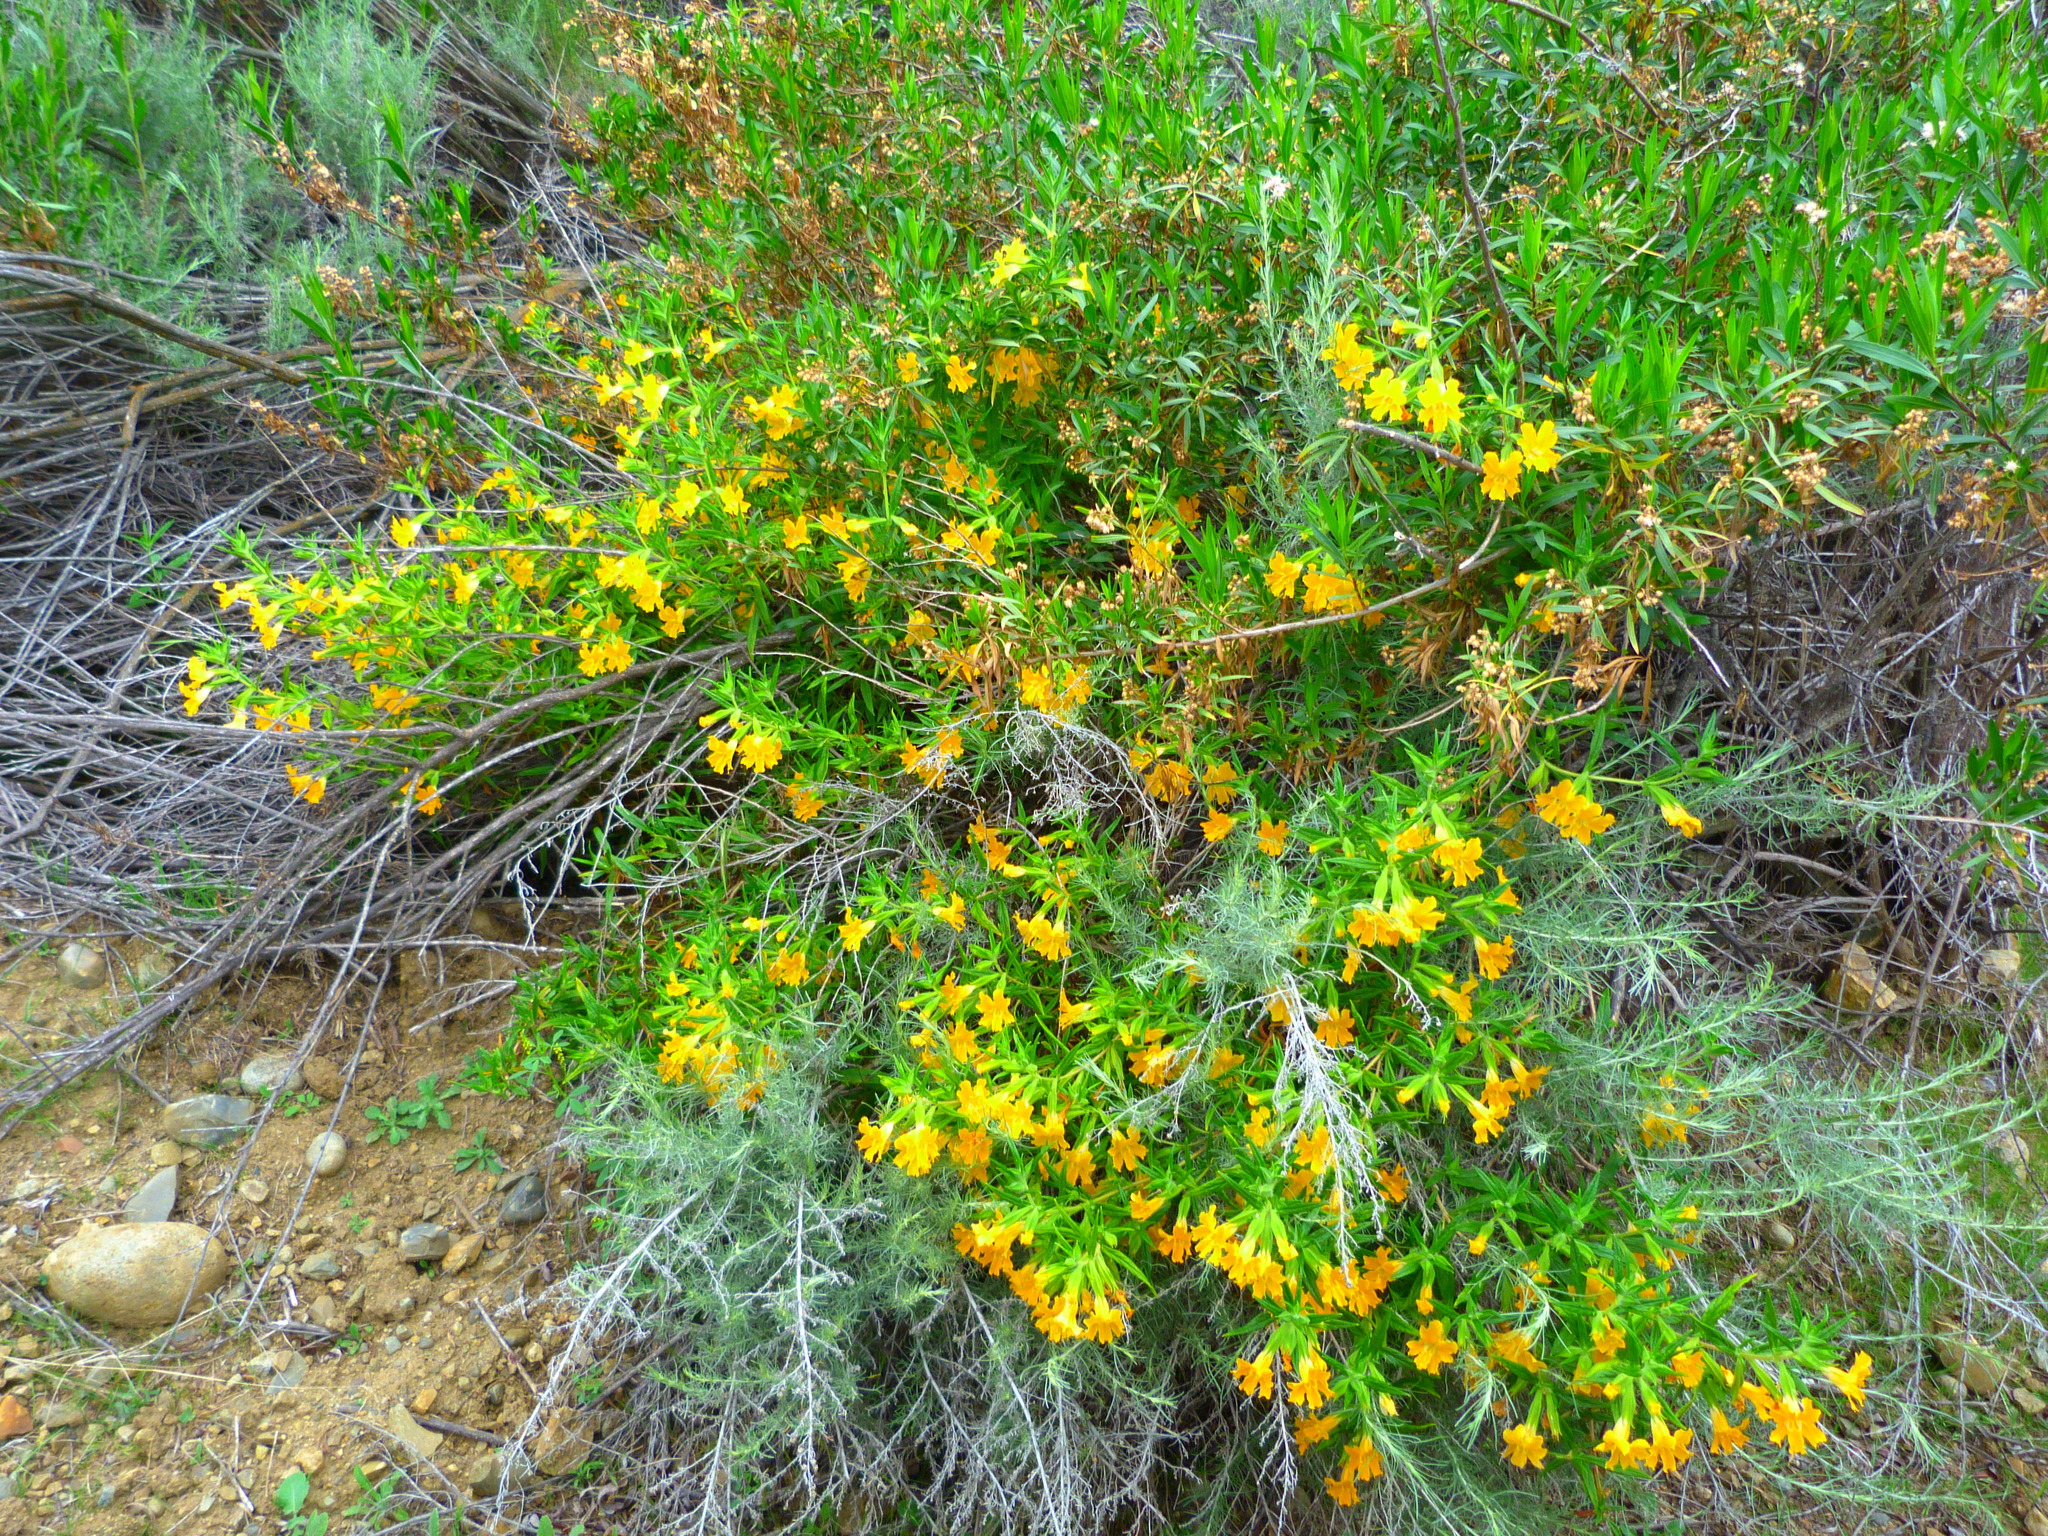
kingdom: Plantae
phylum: Tracheophyta
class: Magnoliopsida
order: Lamiales
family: Phrymaceae
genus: Diplacus
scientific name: Diplacus longiflorus
